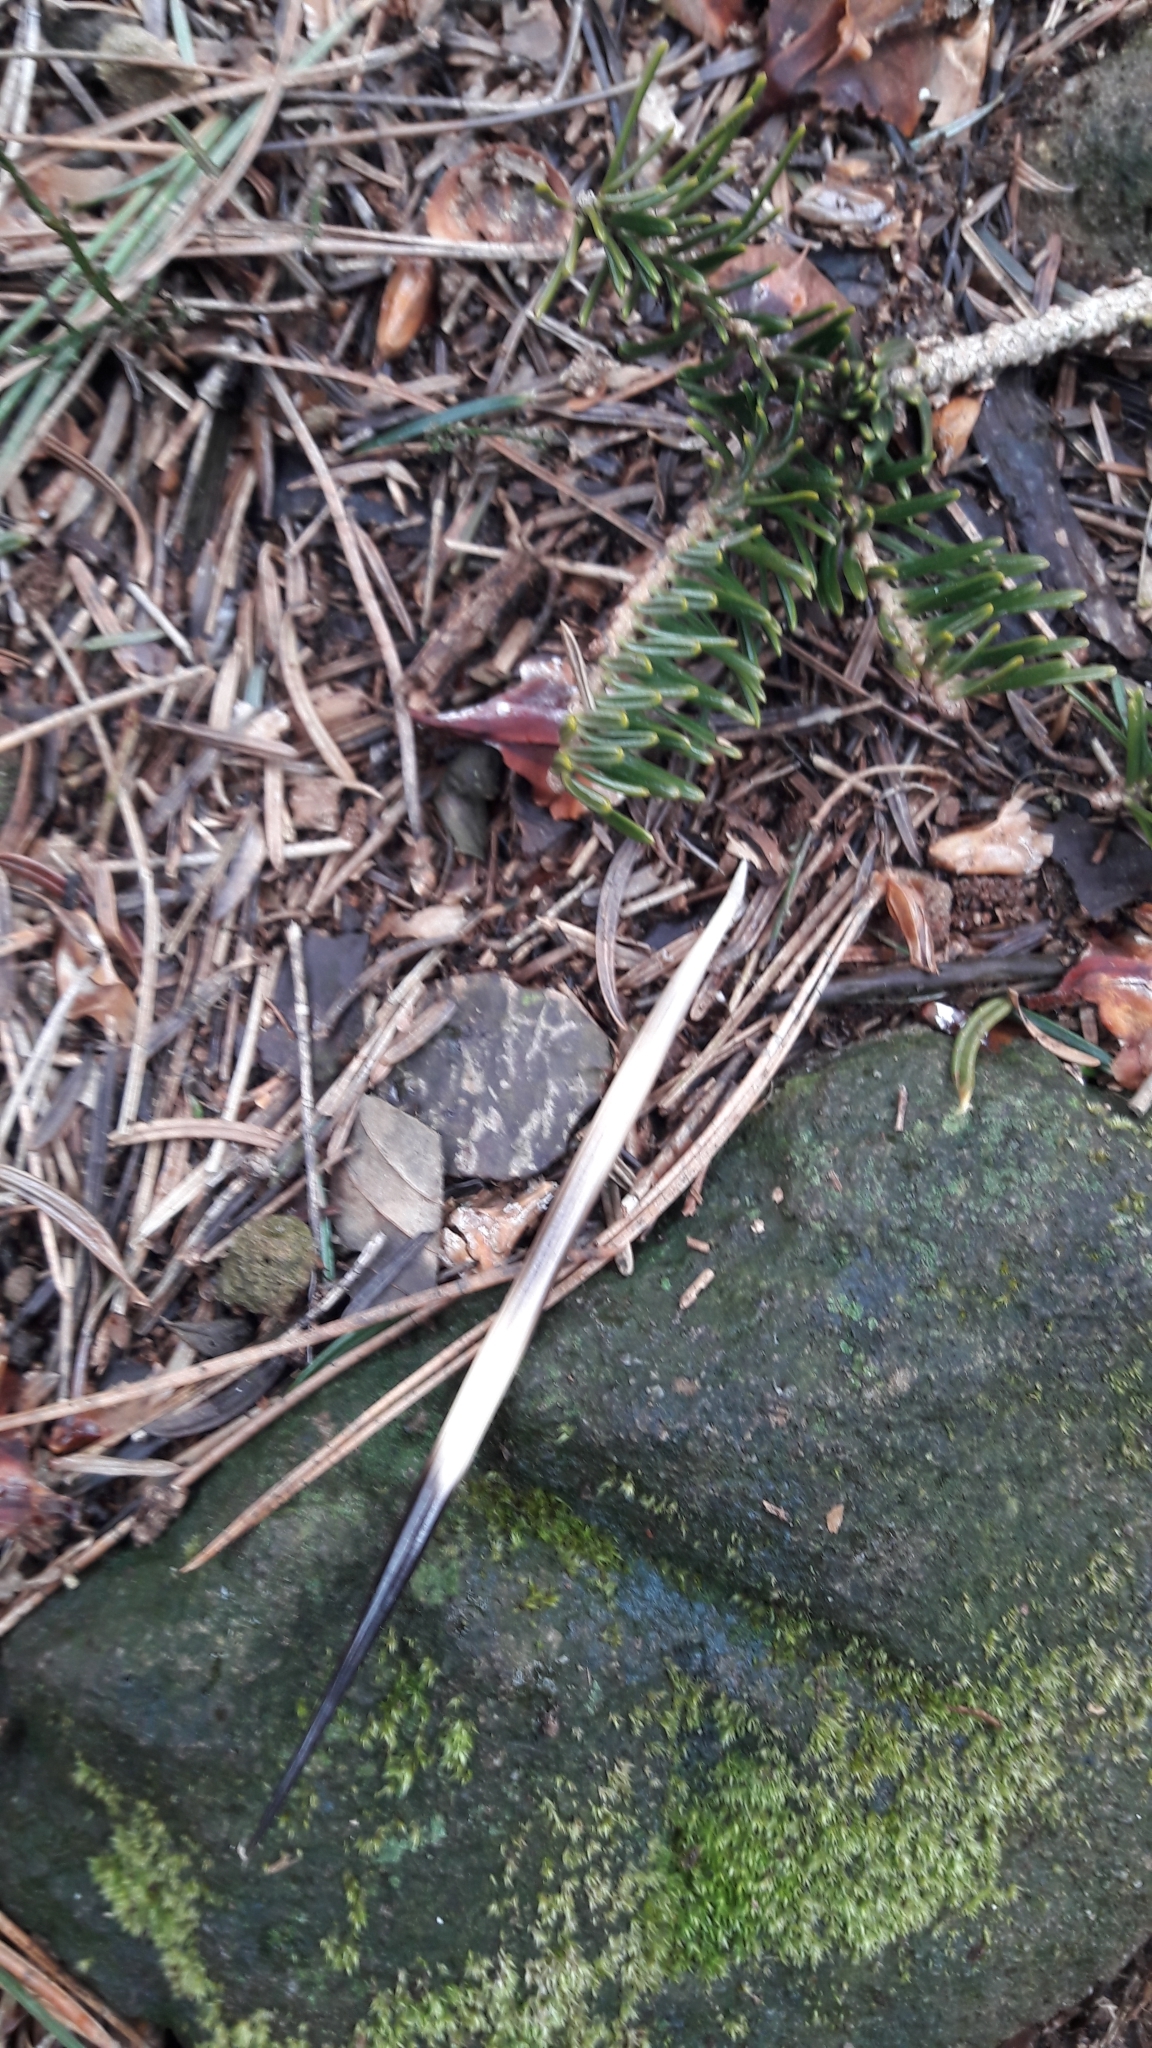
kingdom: Animalia
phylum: Chordata
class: Mammalia
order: Rodentia
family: Hystricidae
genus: Hystrix
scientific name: Hystrix cristata
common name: Crested porcupine
